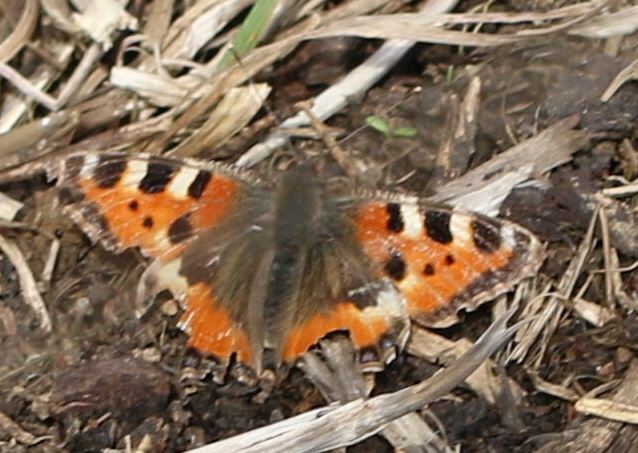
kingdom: Animalia
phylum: Arthropoda
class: Insecta
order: Lepidoptera
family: Nymphalidae
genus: Aglais
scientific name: Aglais urticae
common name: Small tortoiseshell
